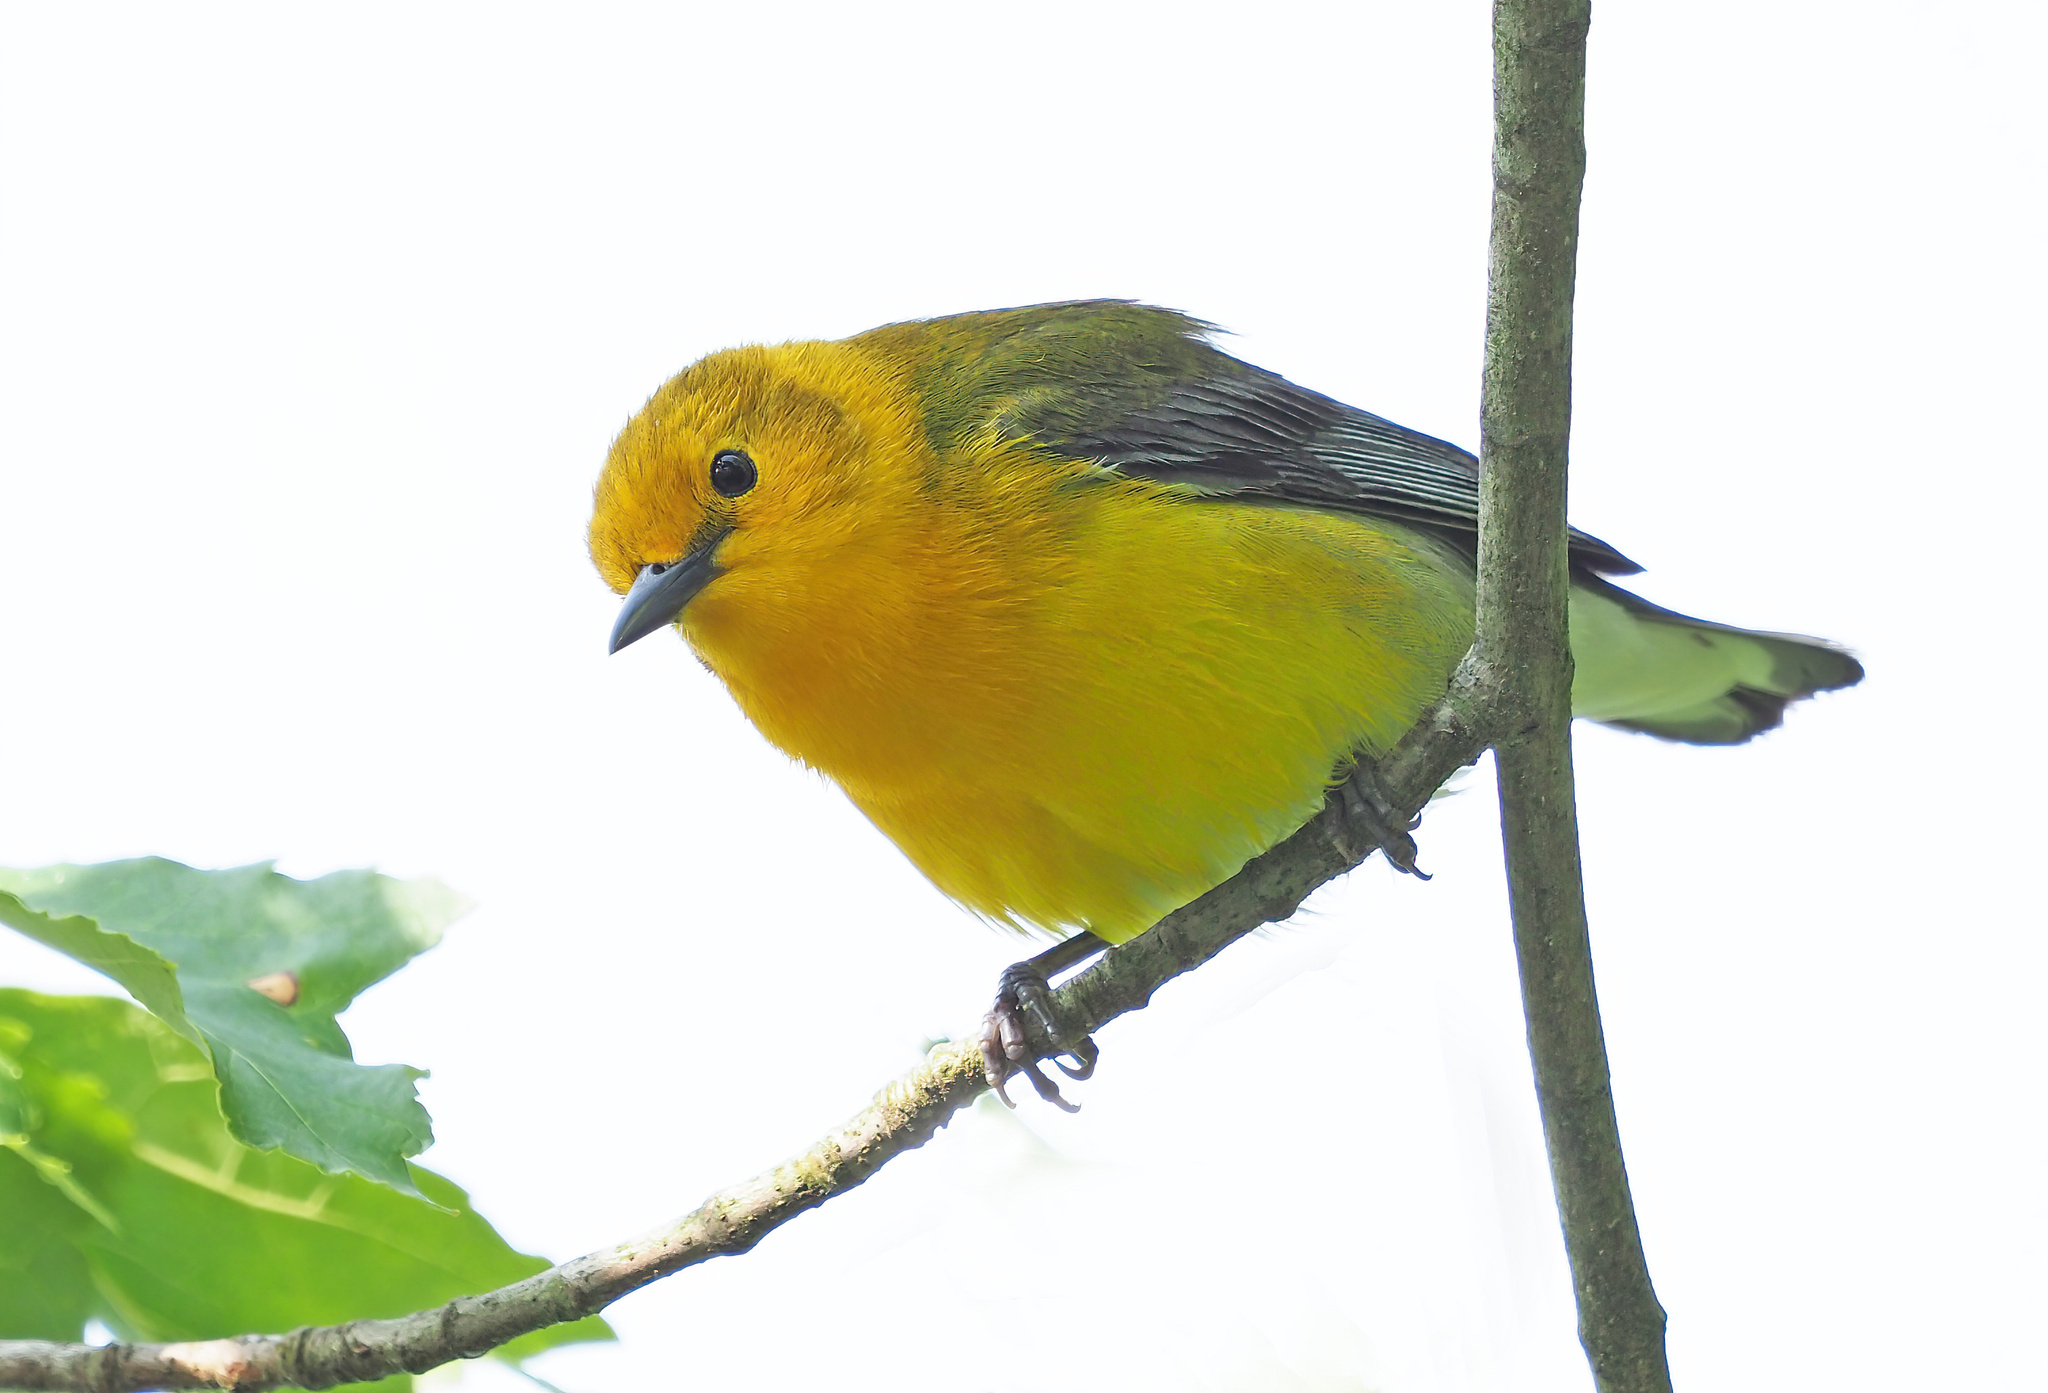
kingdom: Animalia
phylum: Chordata
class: Aves
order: Passeriformes
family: Parulidae
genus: Protonotaria
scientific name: Protonotaria citrea
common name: Prothonotary warbler
